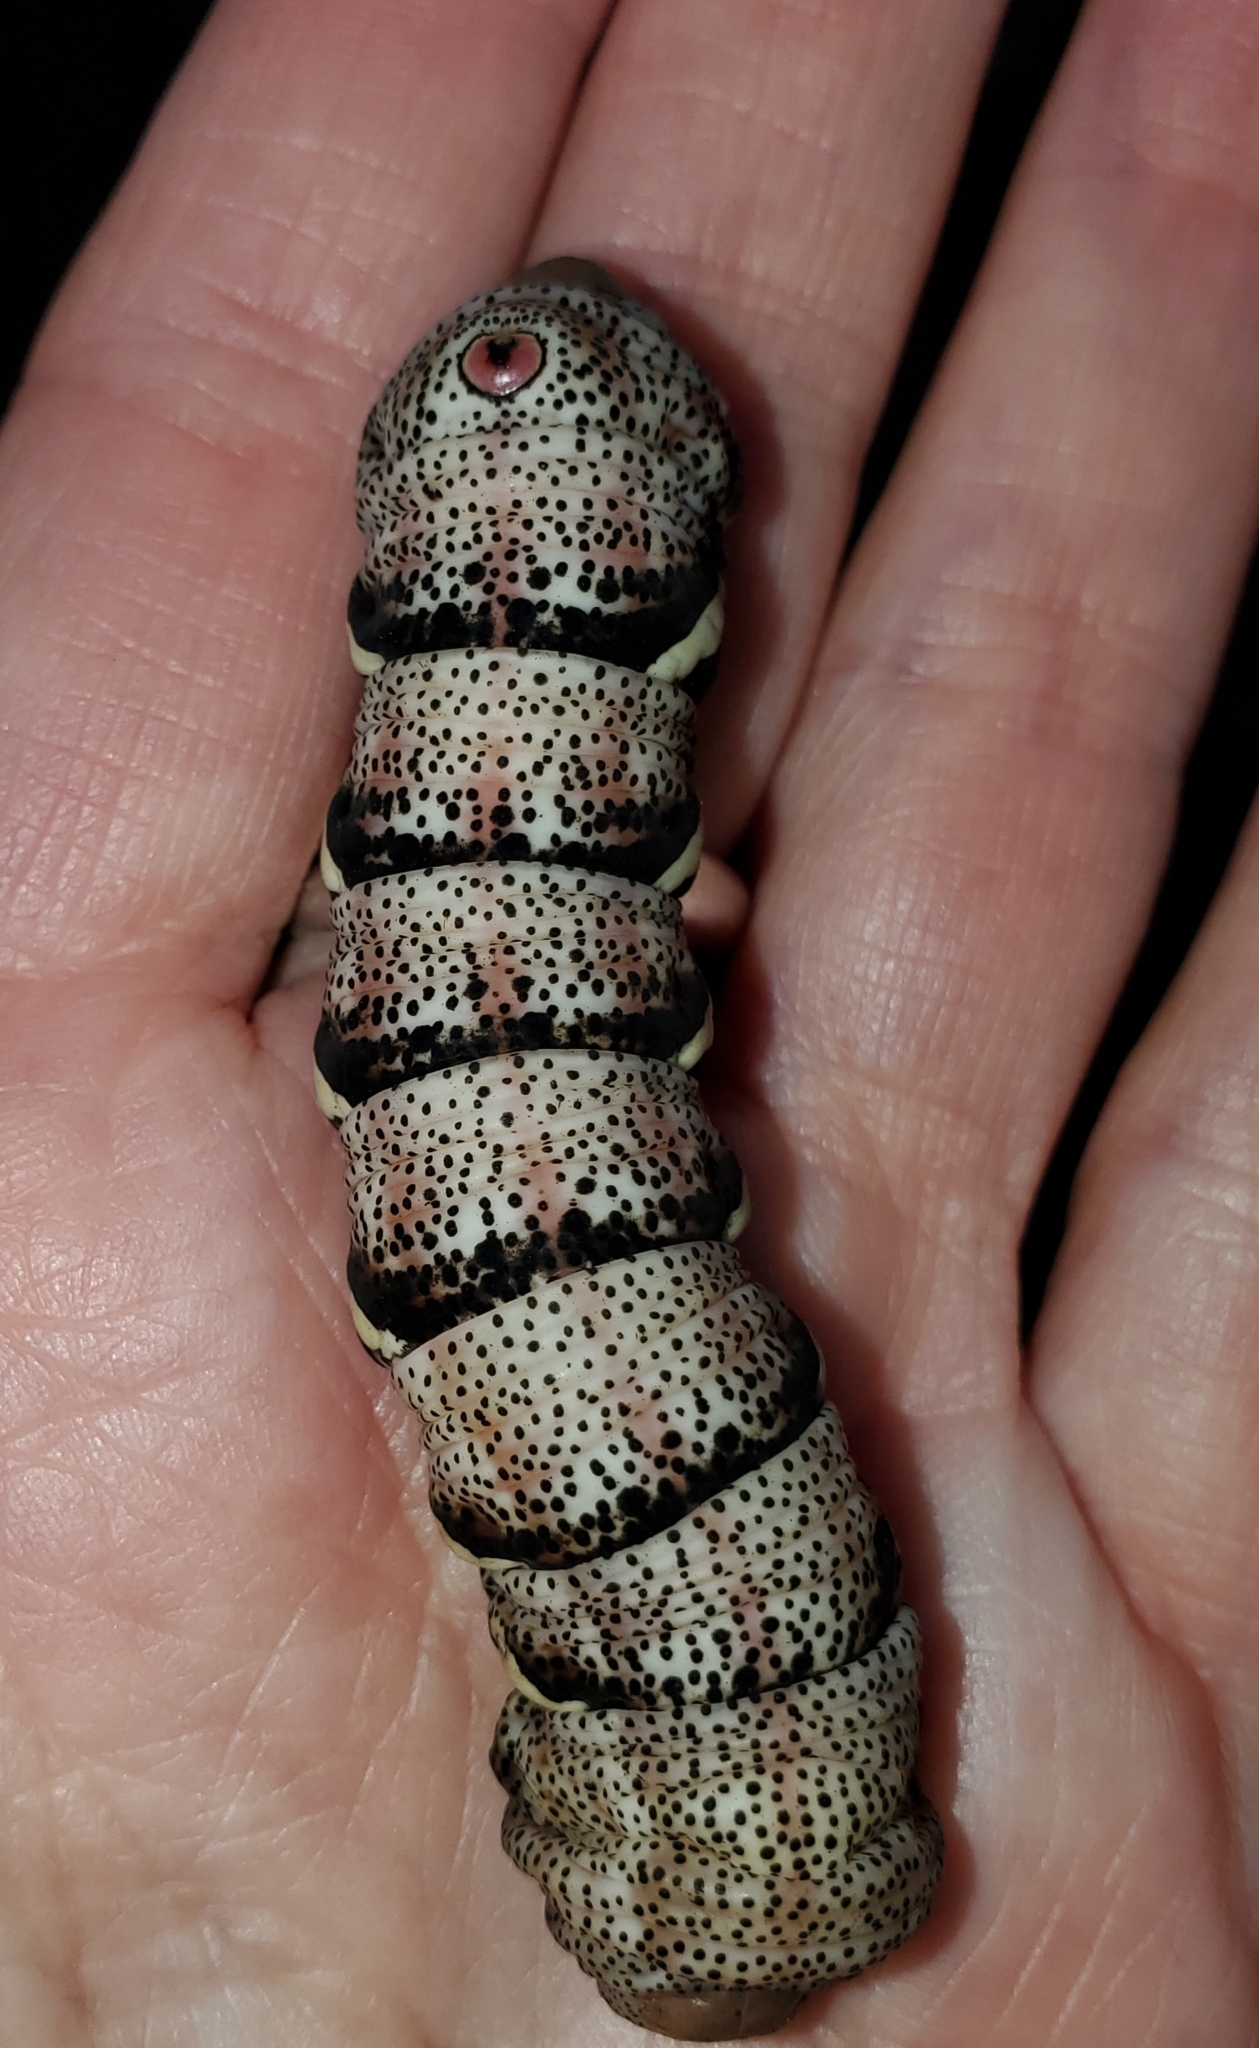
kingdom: Animalia
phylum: Arthropoda
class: Insecta
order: Lepidoptera
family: Sphingidae
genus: Eumorpha
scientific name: Eumorpha typhon
